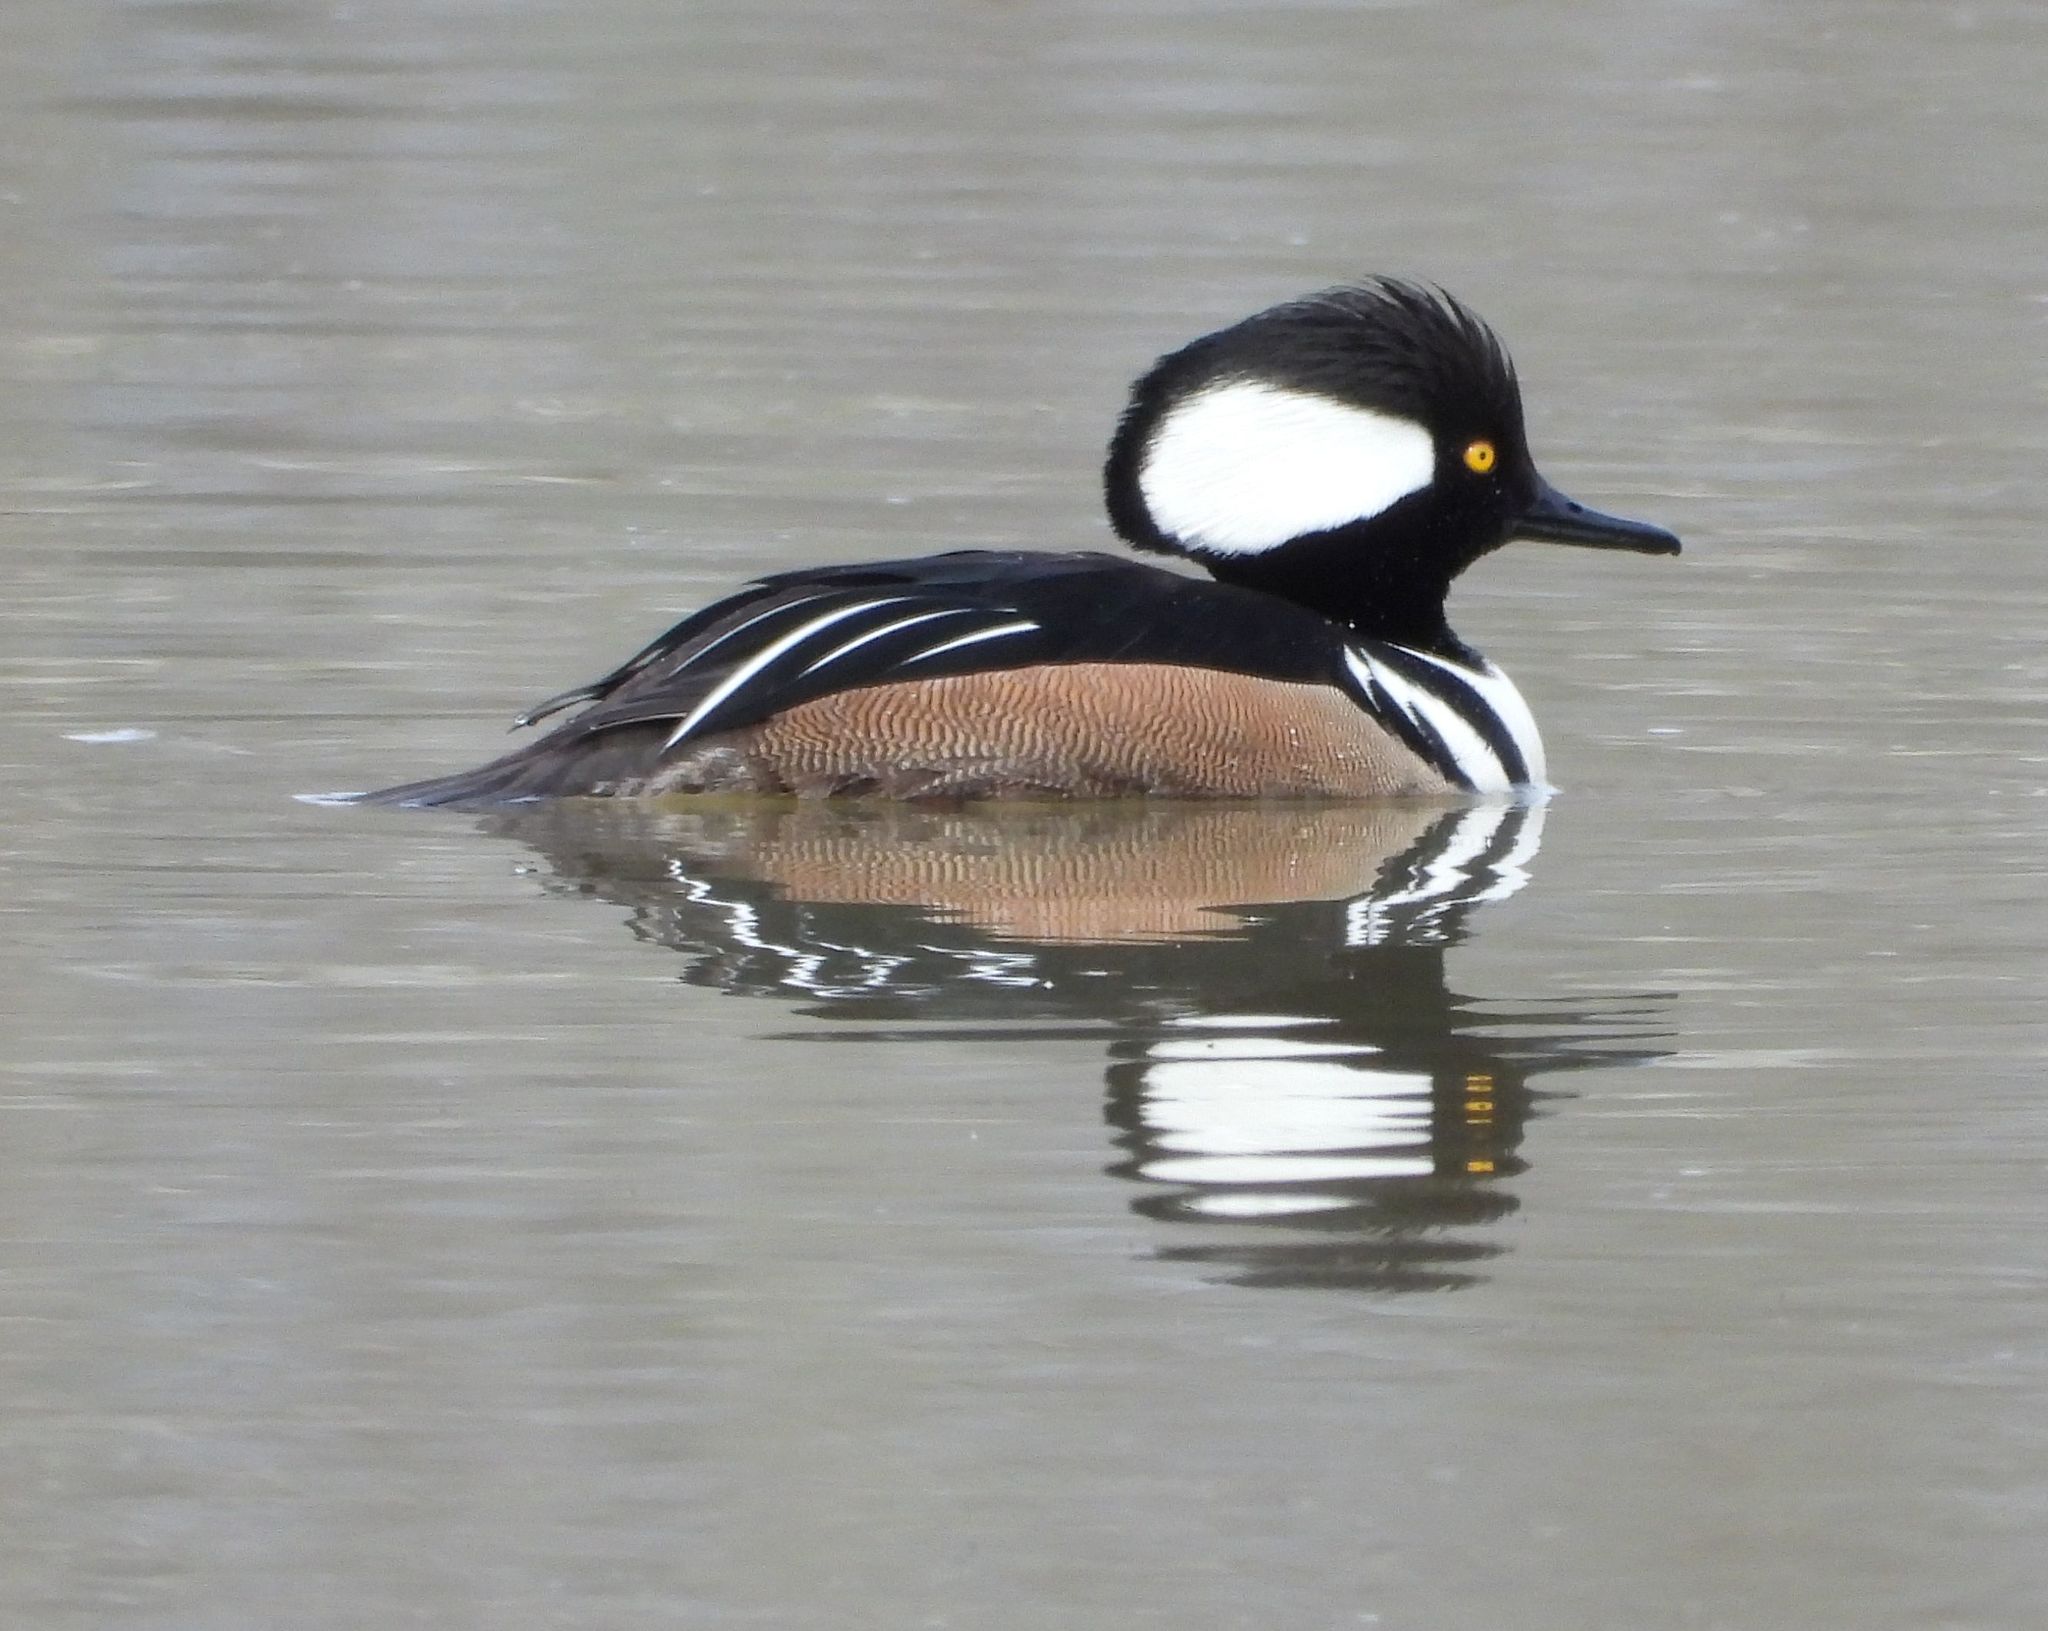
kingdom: Animalia
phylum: Chordata
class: Aves
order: Anseriformes
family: Anatidae
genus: Lophodytes
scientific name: Lophodytes cucullatus
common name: Hooded merganser
